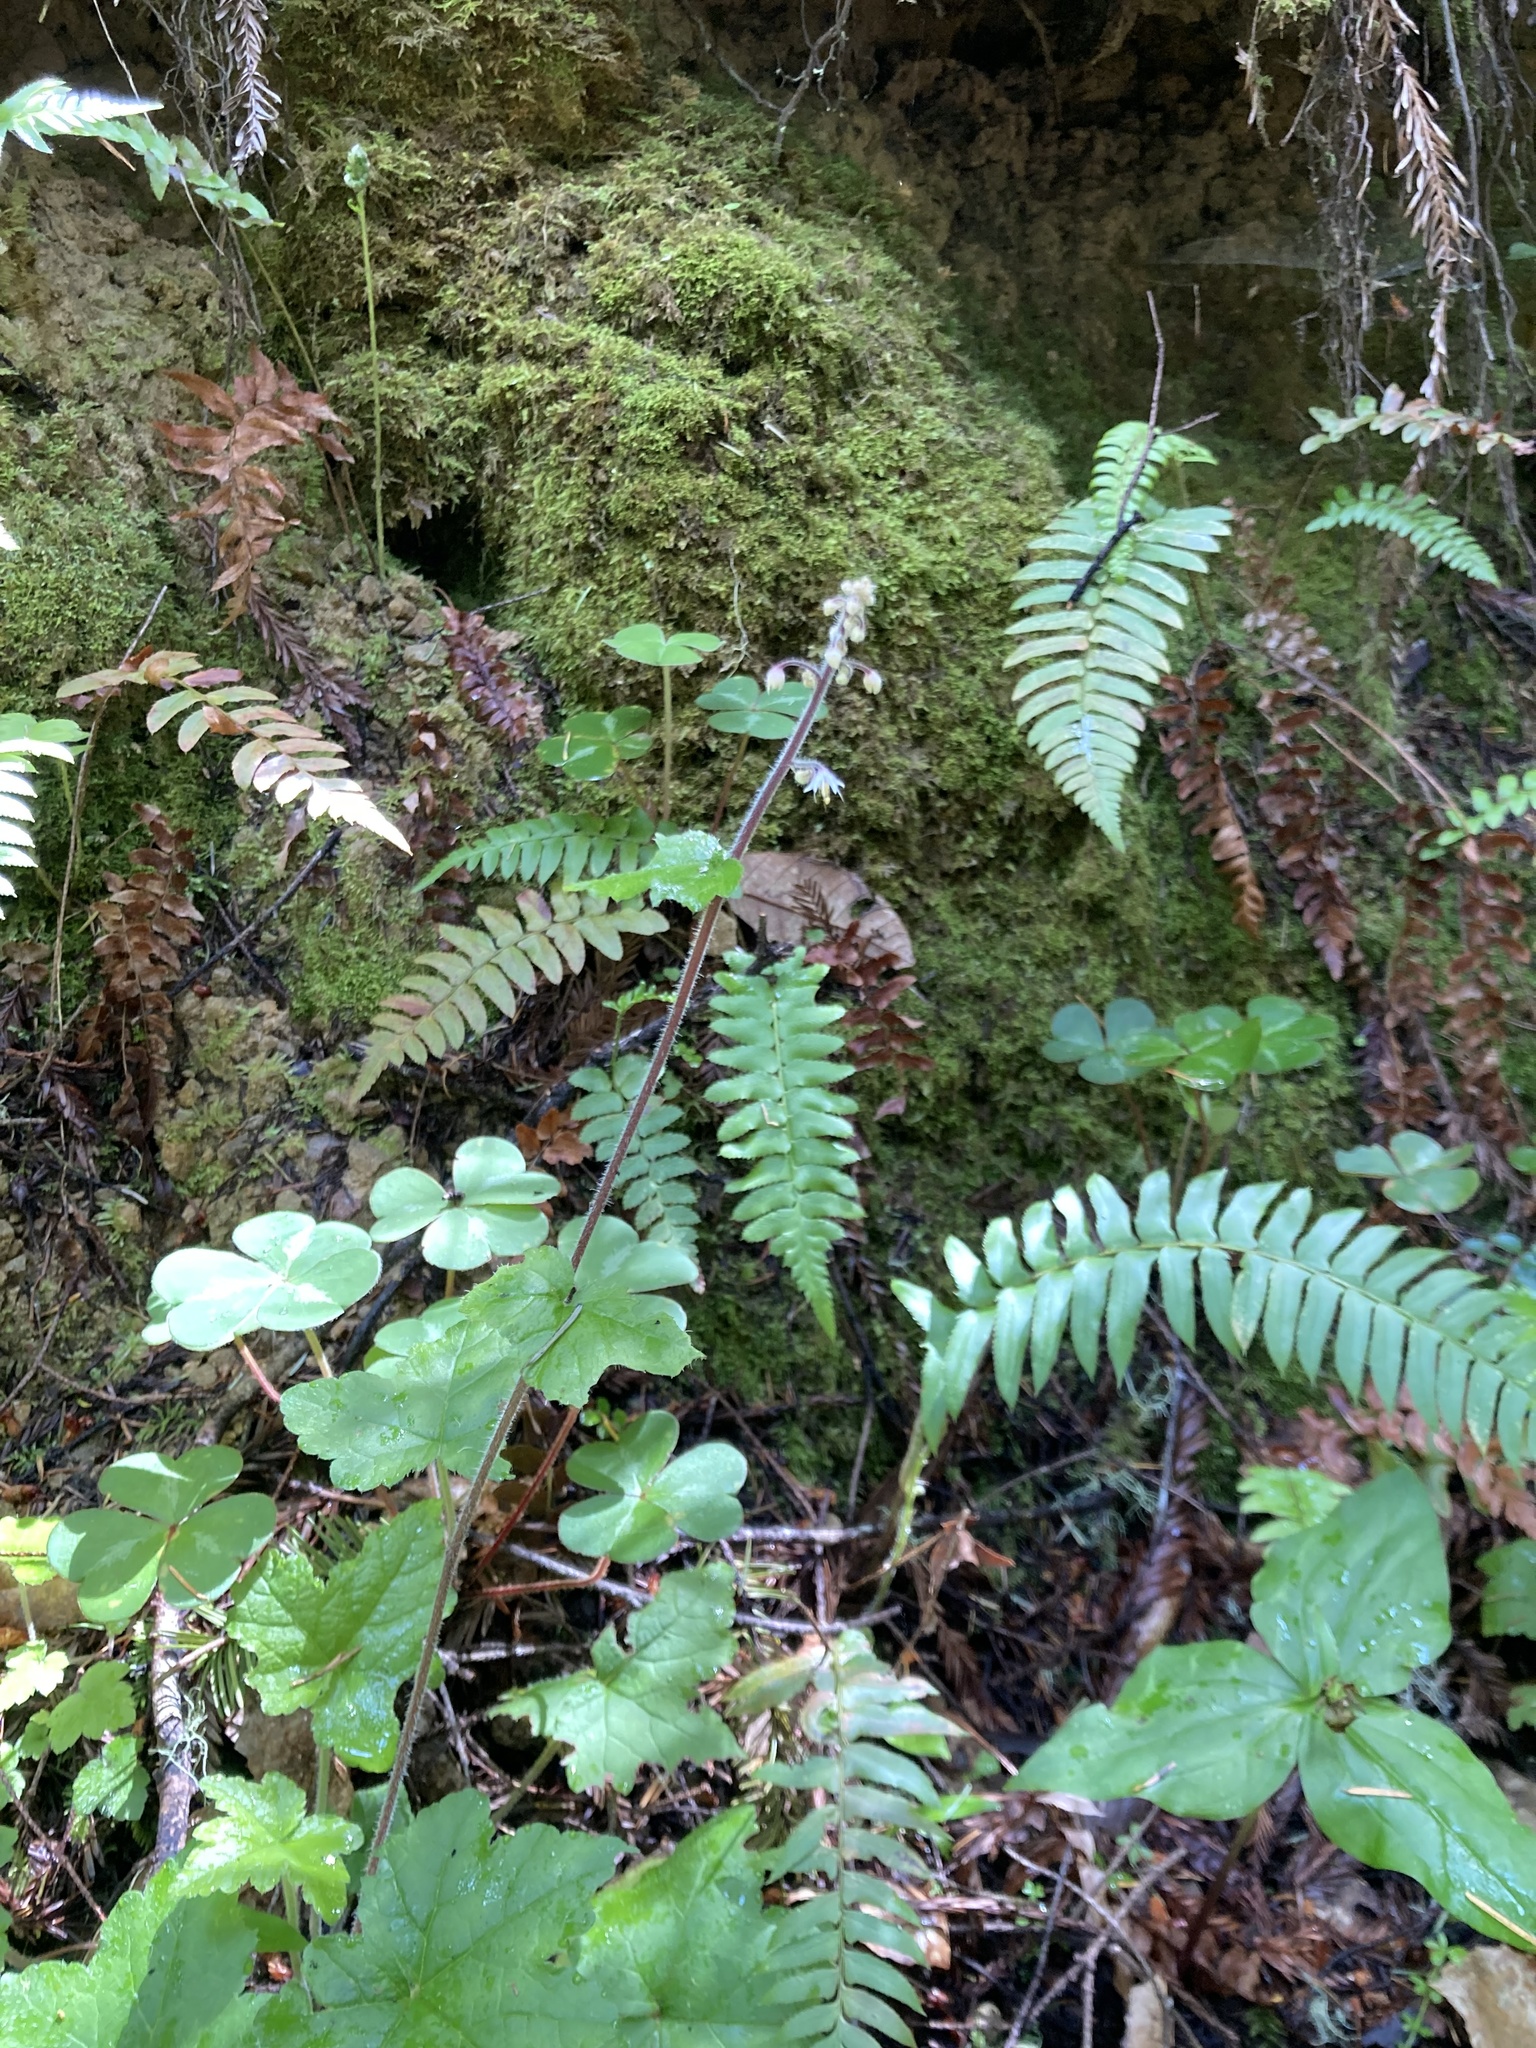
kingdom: Plantae
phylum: Tracheophyta
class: Magnoliopsida
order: Saxifragales
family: Saxifragaceae
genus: Tiarella
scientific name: Tiarella trifoliata
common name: Sugar-scoop
